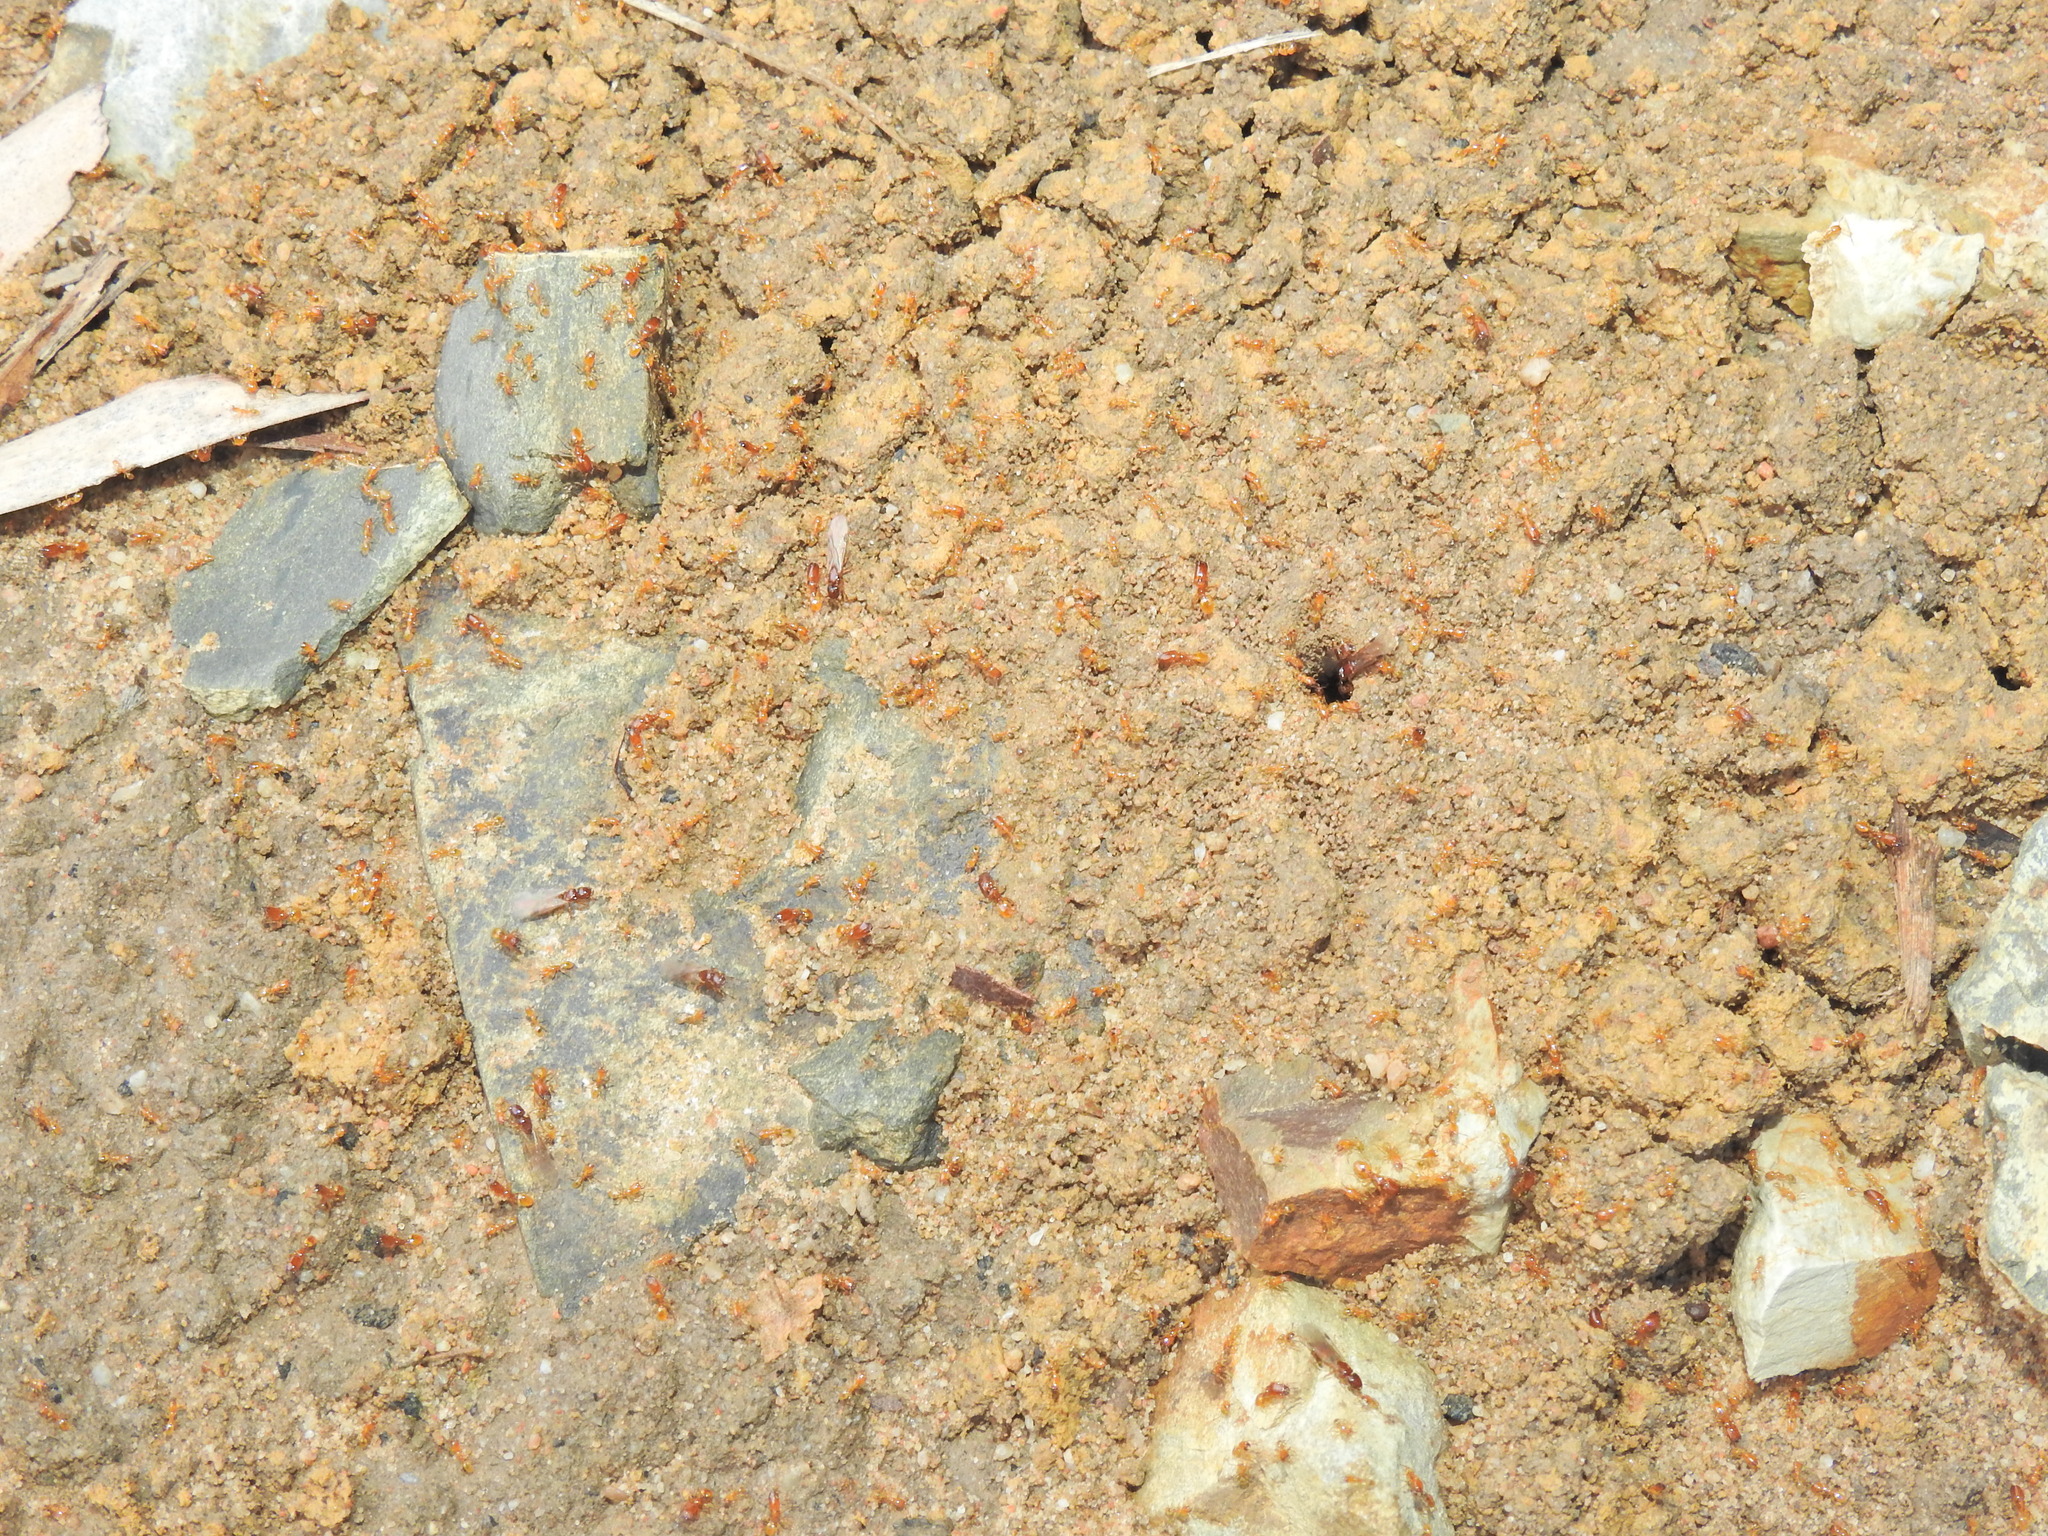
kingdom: Animalia
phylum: Arthropoda
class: Insecta
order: Hymenoptera
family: Formicidae
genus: Pheidole
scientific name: Pheidole
